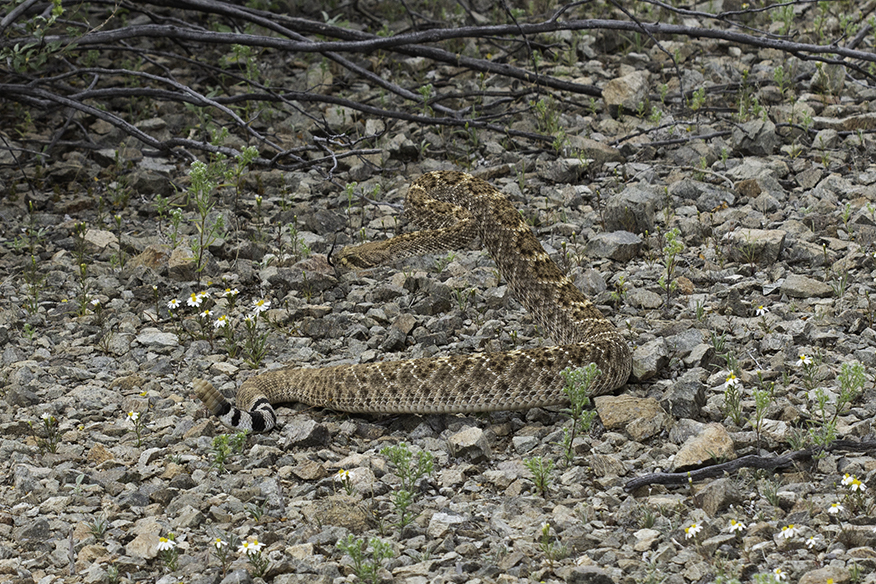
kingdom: Animalia
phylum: Chordata
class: Squamata
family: Viperidae
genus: Crotalus
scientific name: Crotalus atrox
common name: Western diamond-backed rattlesnake
